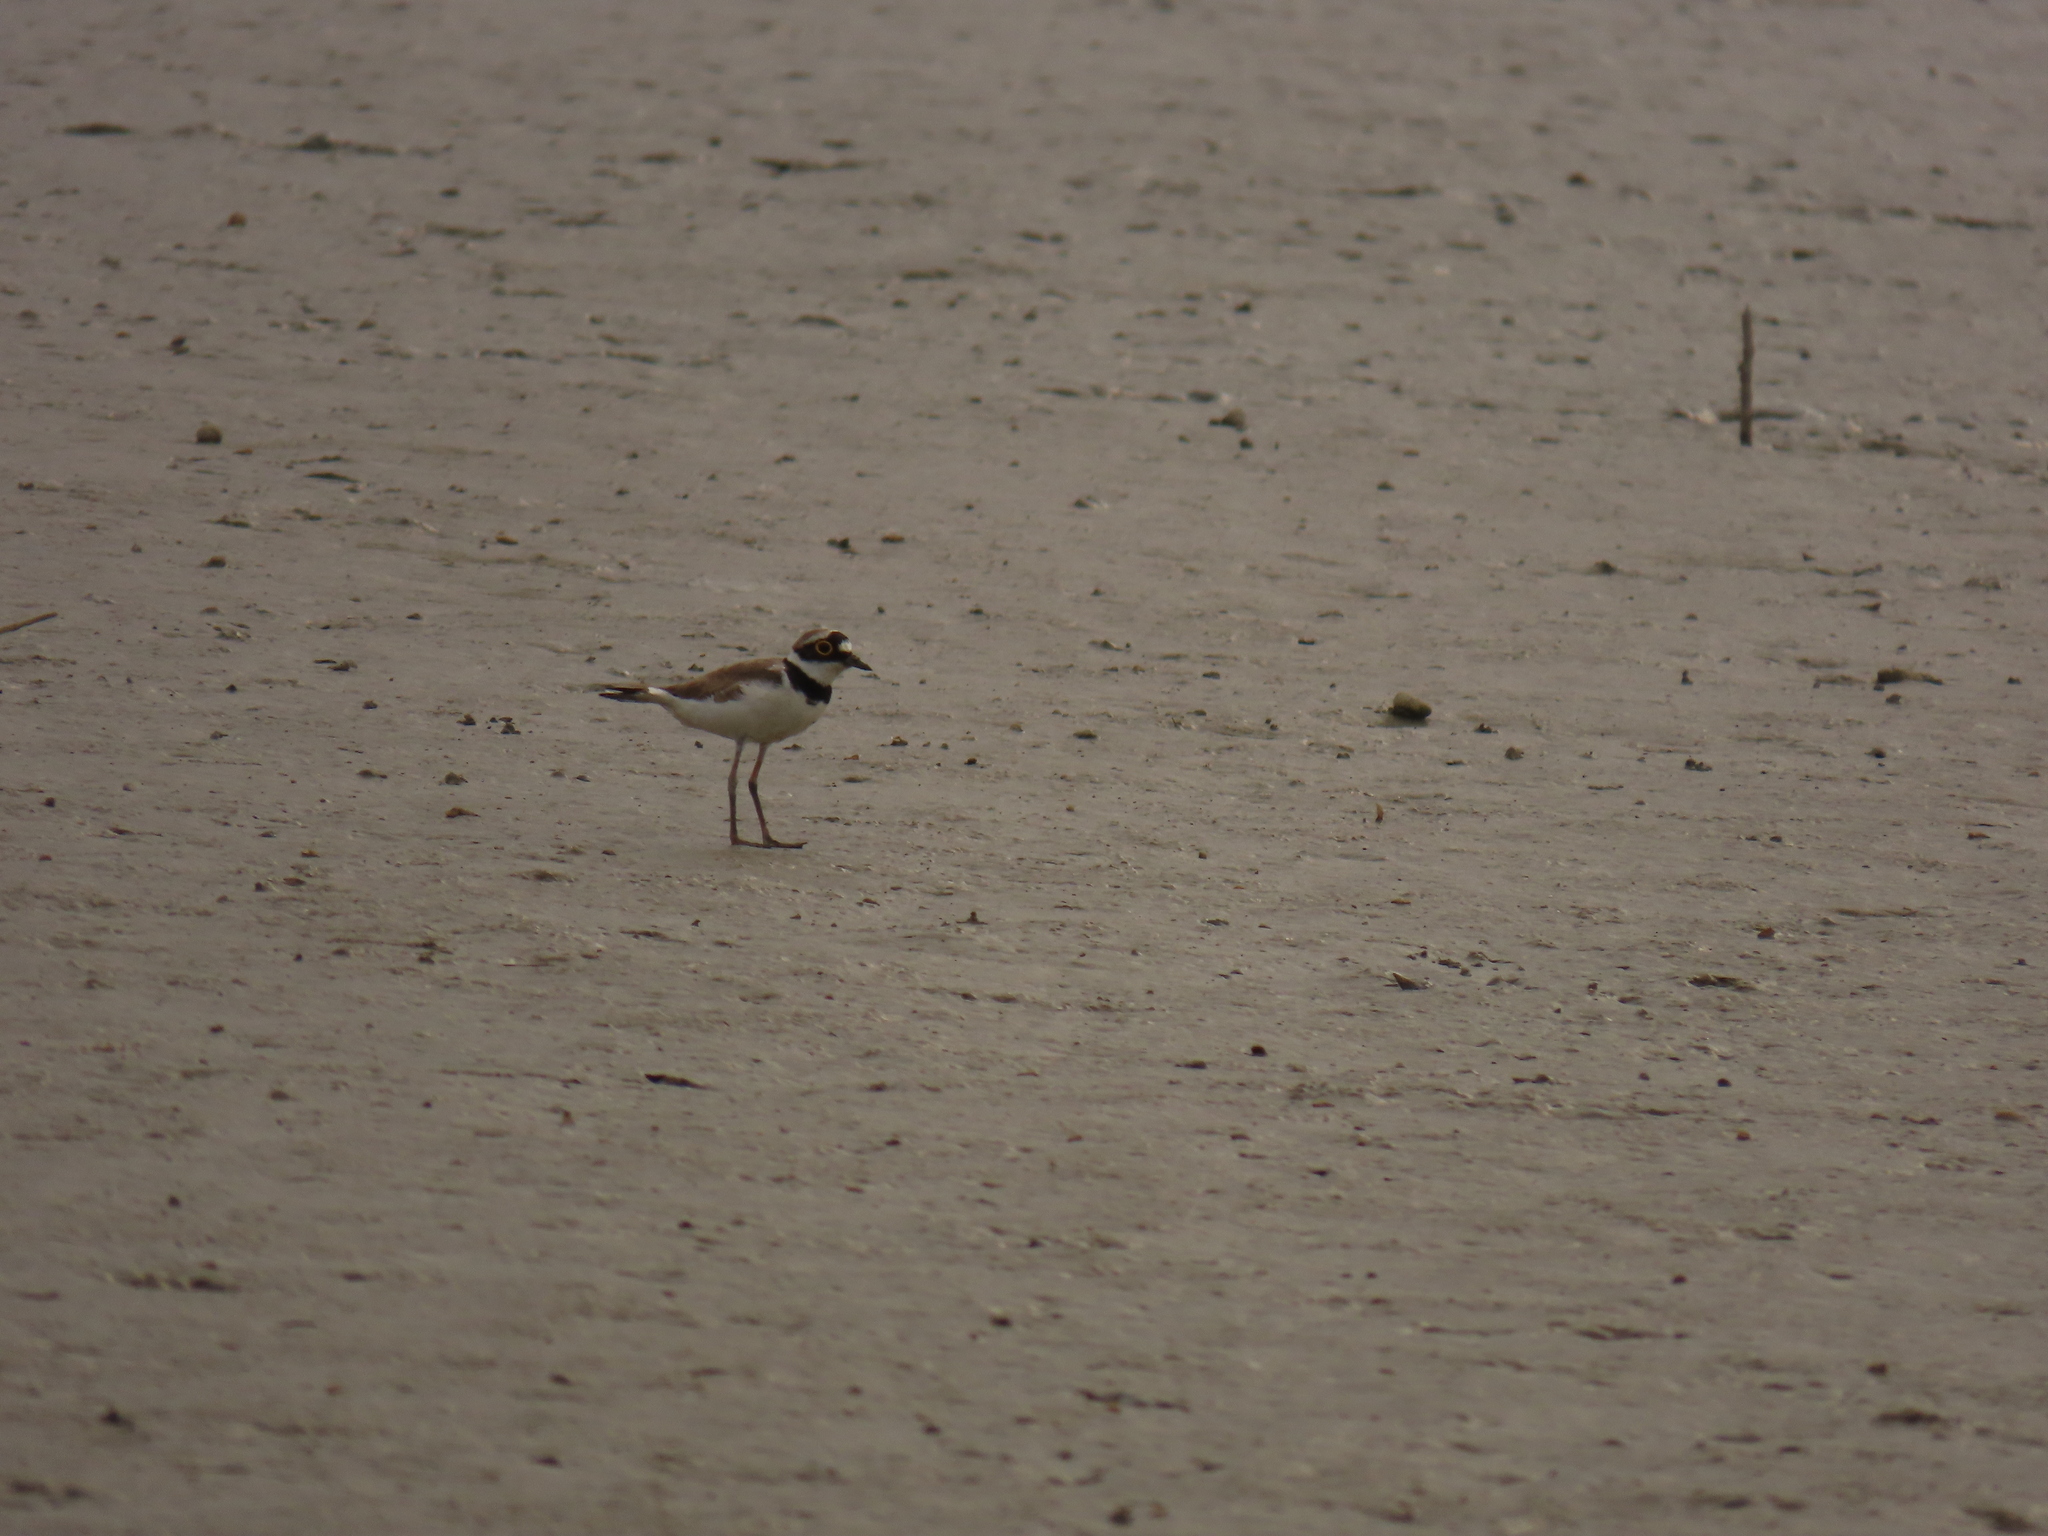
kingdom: Animalia
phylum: Chordata
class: Aves
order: Charadriiformes
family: Charadriidae
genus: Charadrius
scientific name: Charadrius dubius
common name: Little ringed plover
